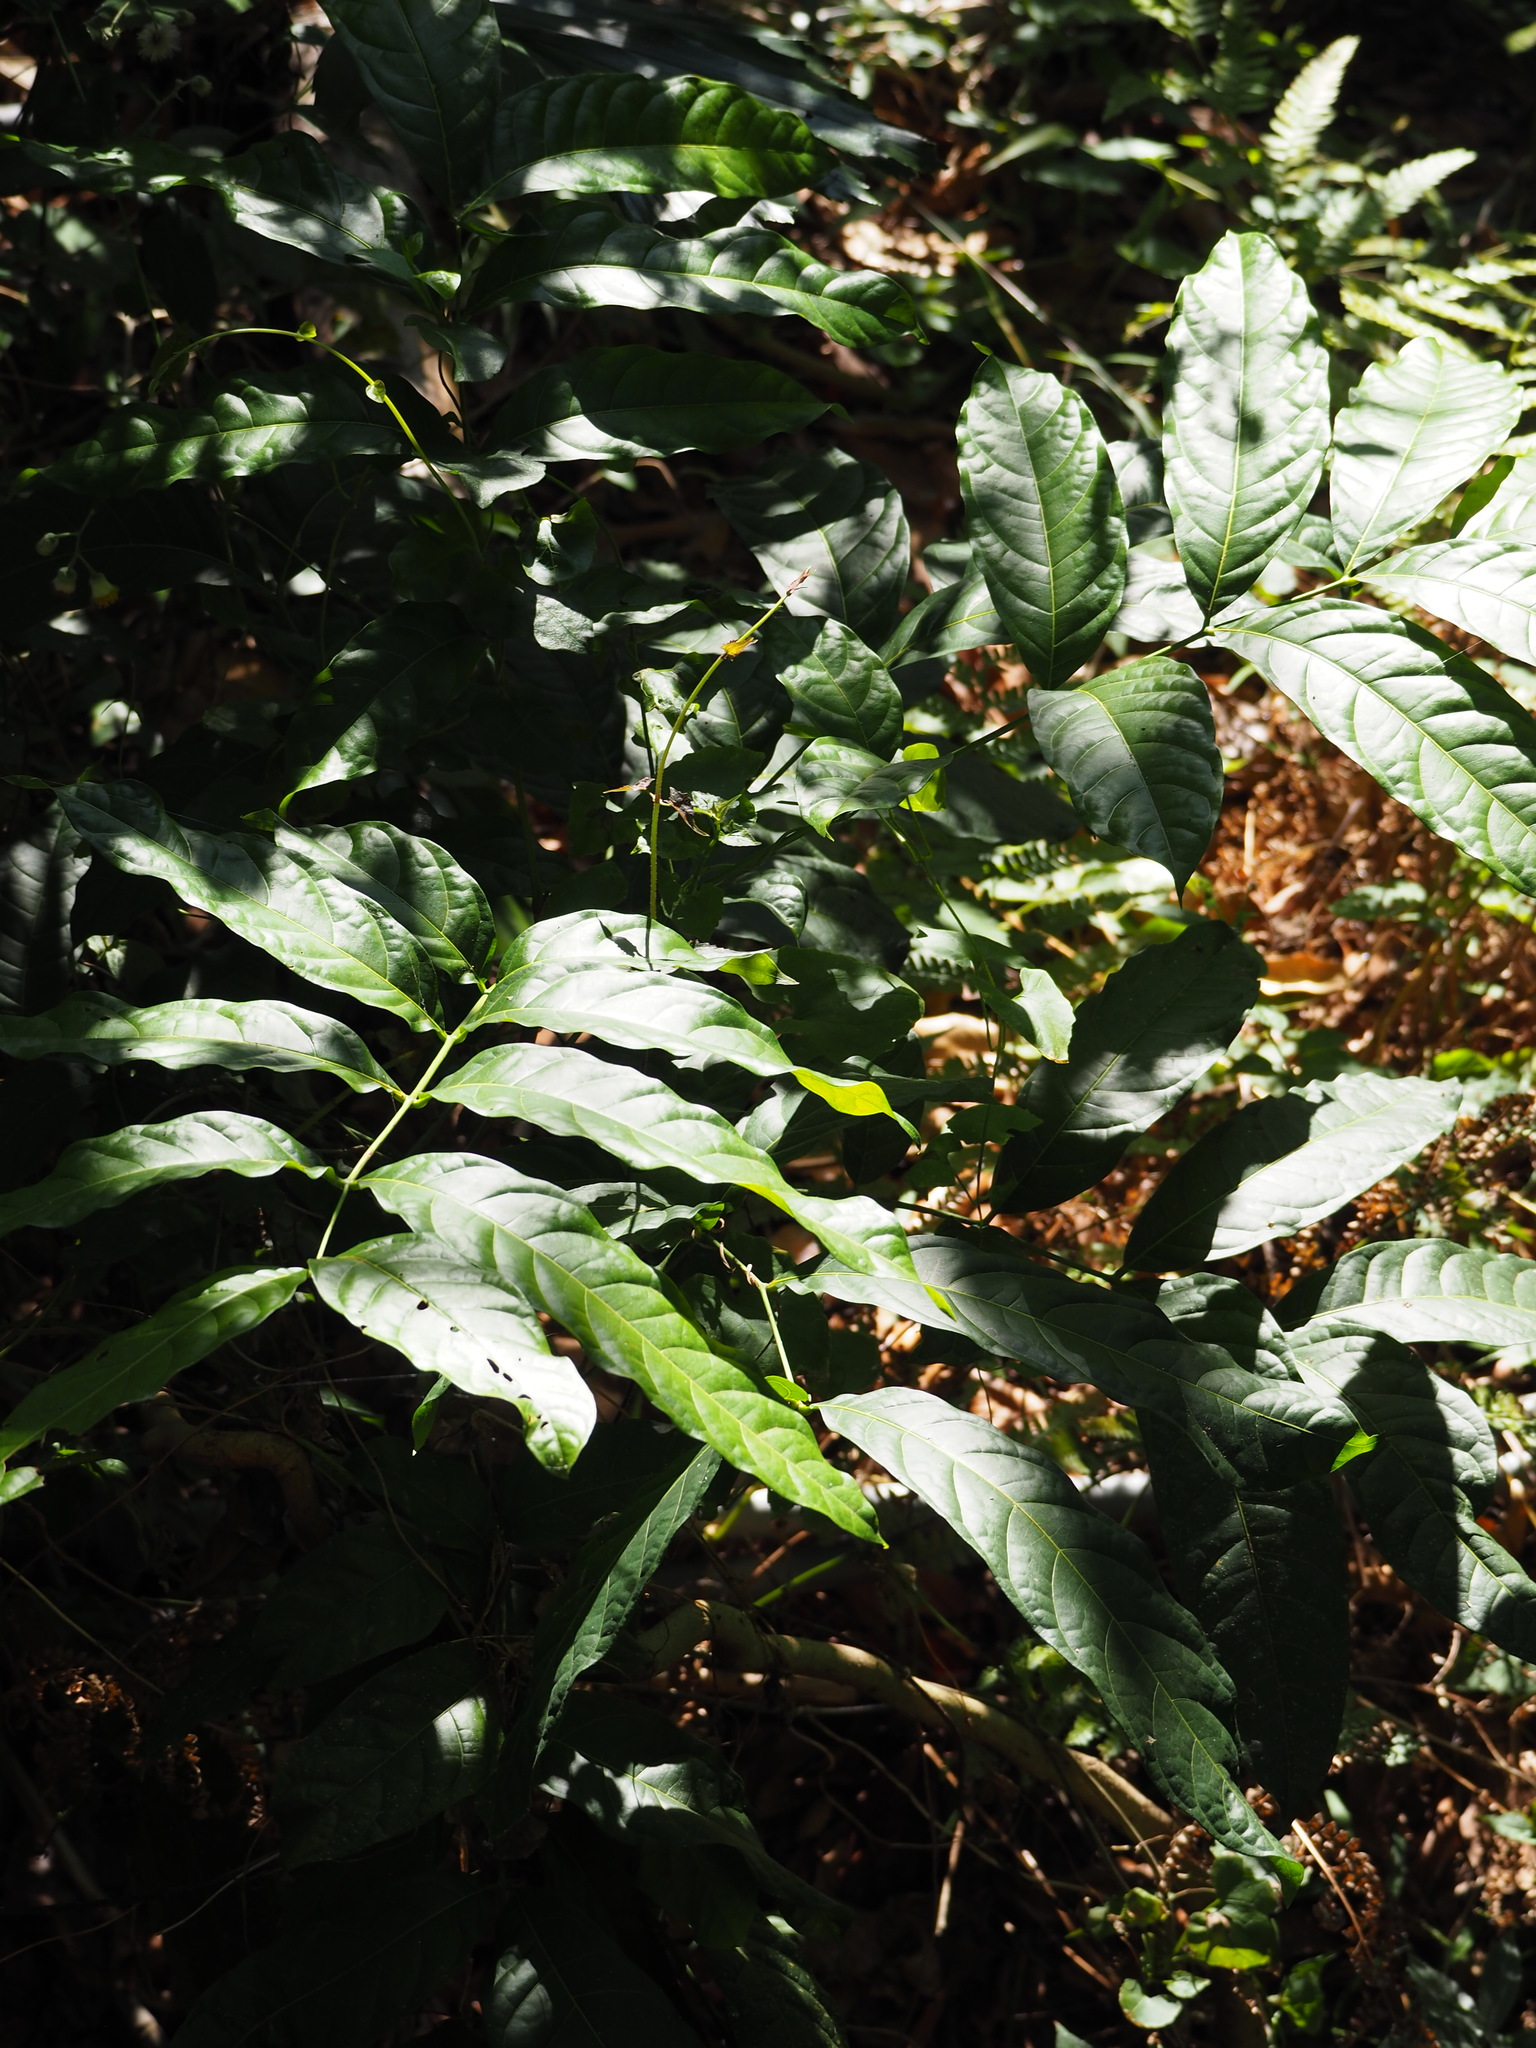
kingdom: Plantae
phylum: Tracheophyta
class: Magnoliopsida
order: Sapindales
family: Meliaceae
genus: Swietenia
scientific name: Swietenia macrophylla
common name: Honduras mahogany
